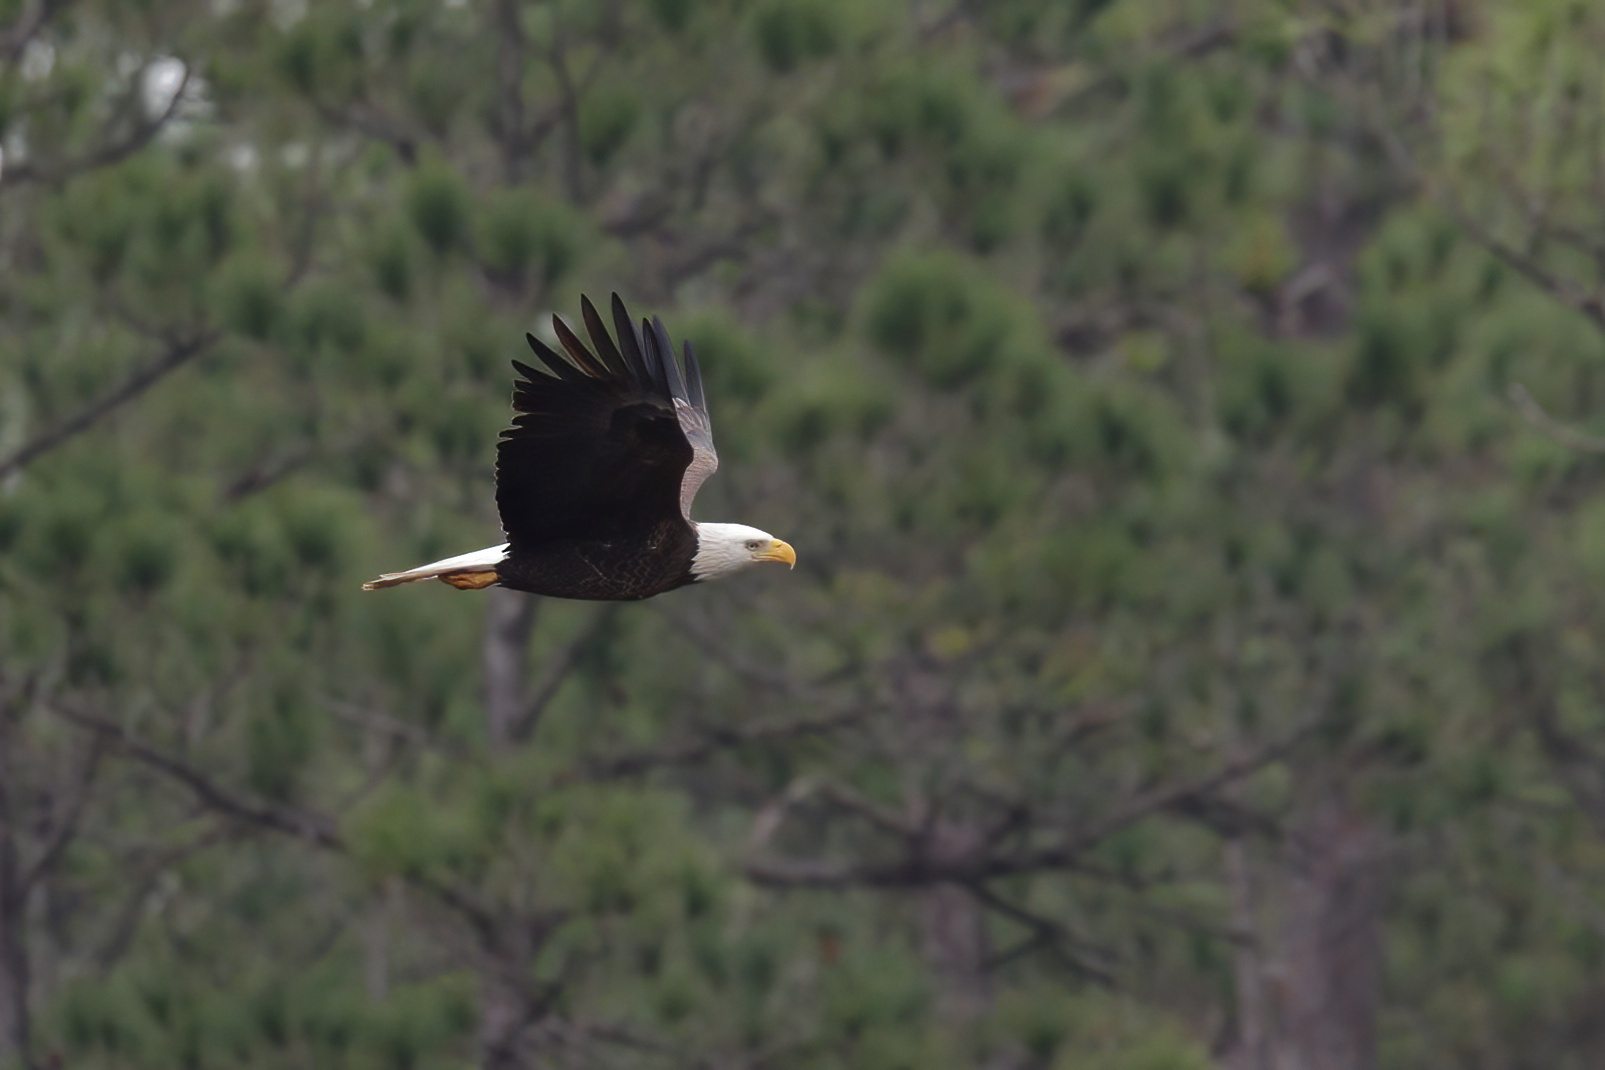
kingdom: Animalia
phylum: Chordata
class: Aves
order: Accipitriformes
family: Accipitridae
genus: Haliaeetus
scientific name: Haliaeetus leucocephalus
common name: Bald eagle
